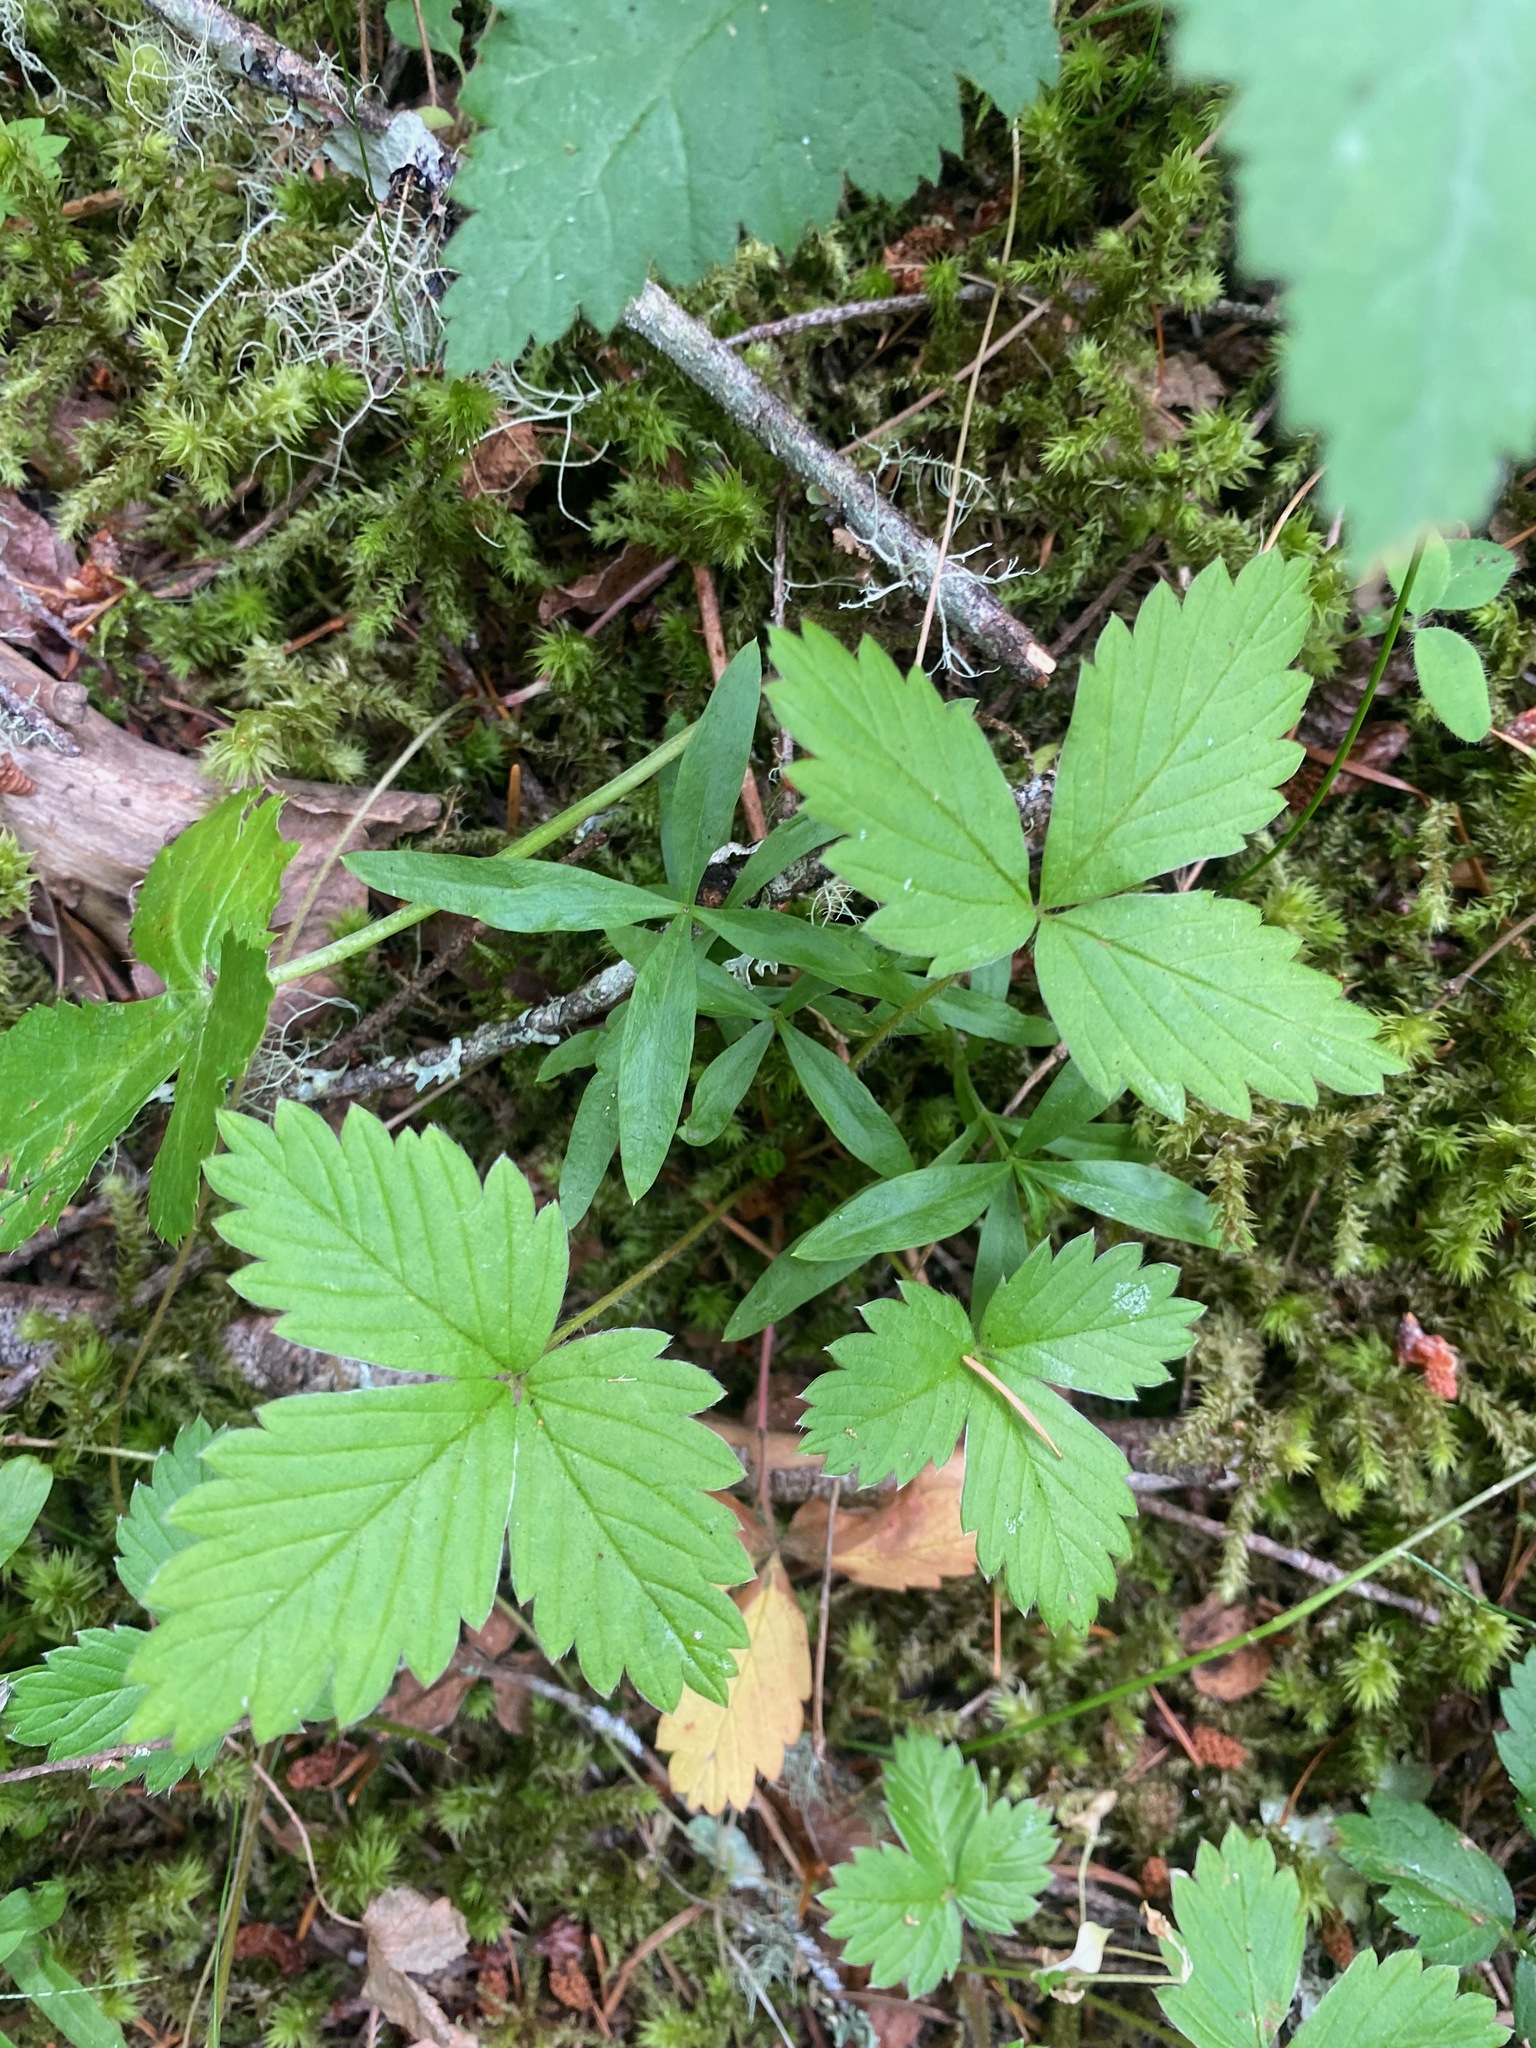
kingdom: Plantae
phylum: Tracheophyta
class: Magnoliopsida
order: Rosales
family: Rosaceae
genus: Fragaria
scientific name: Fragaria vesca
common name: Wild strawberry
